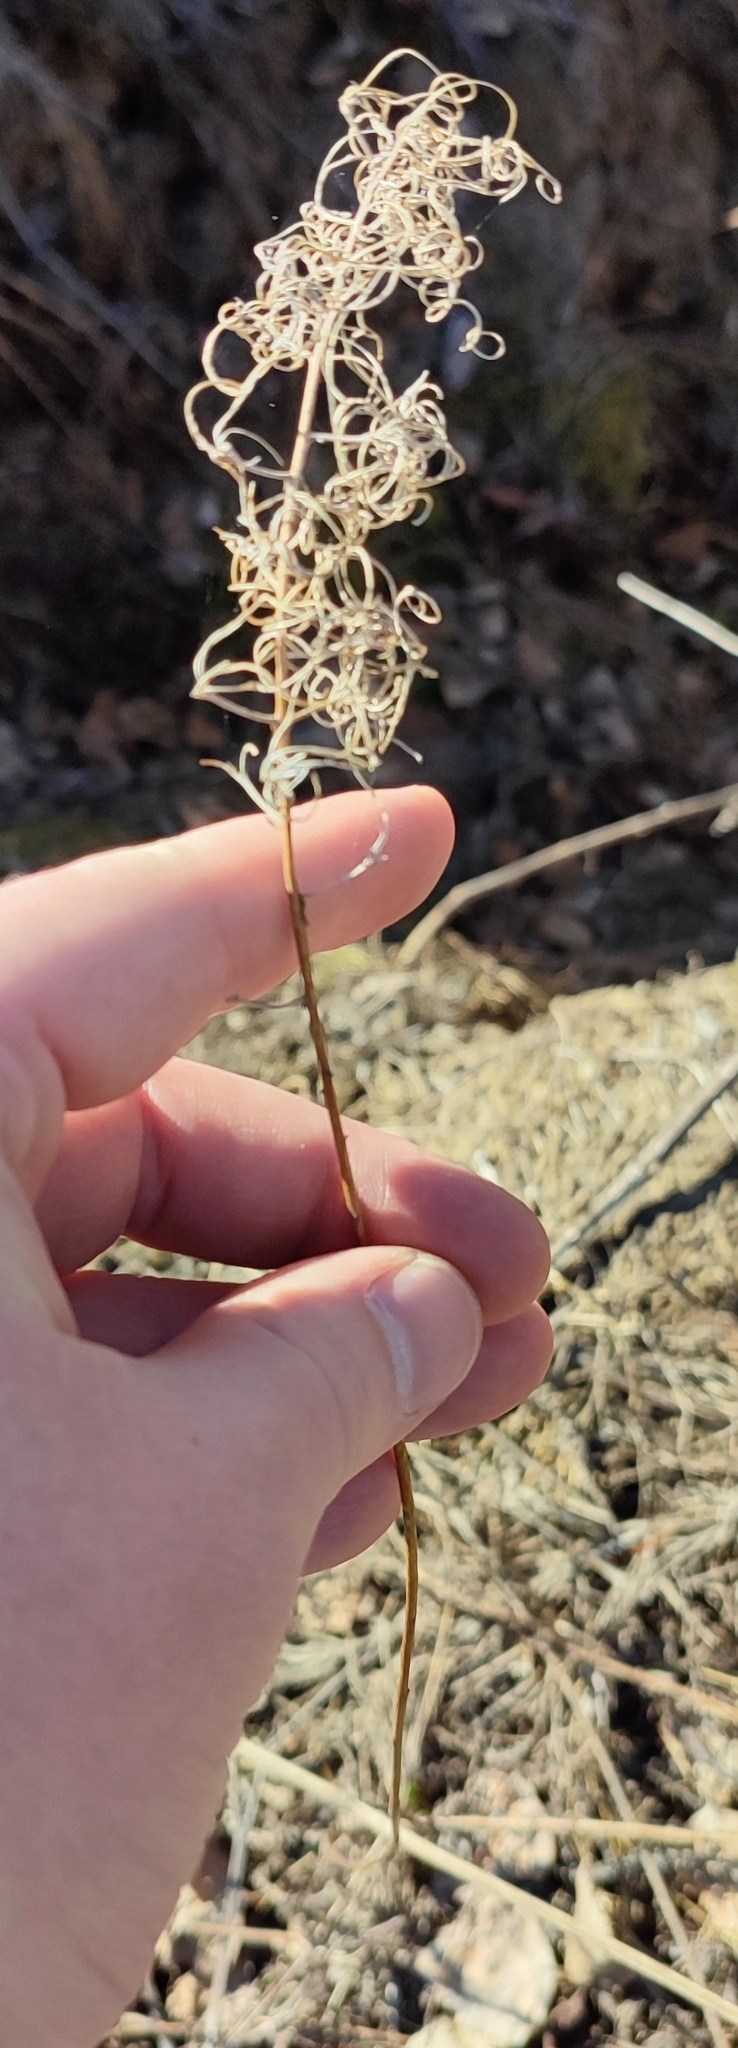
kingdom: Plantae
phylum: Tracheophyta
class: Magnoliopsida
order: Myrtales
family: Onagraceae
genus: Chamaenerion
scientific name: Chamaenerion angustifolium
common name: Fireweed
